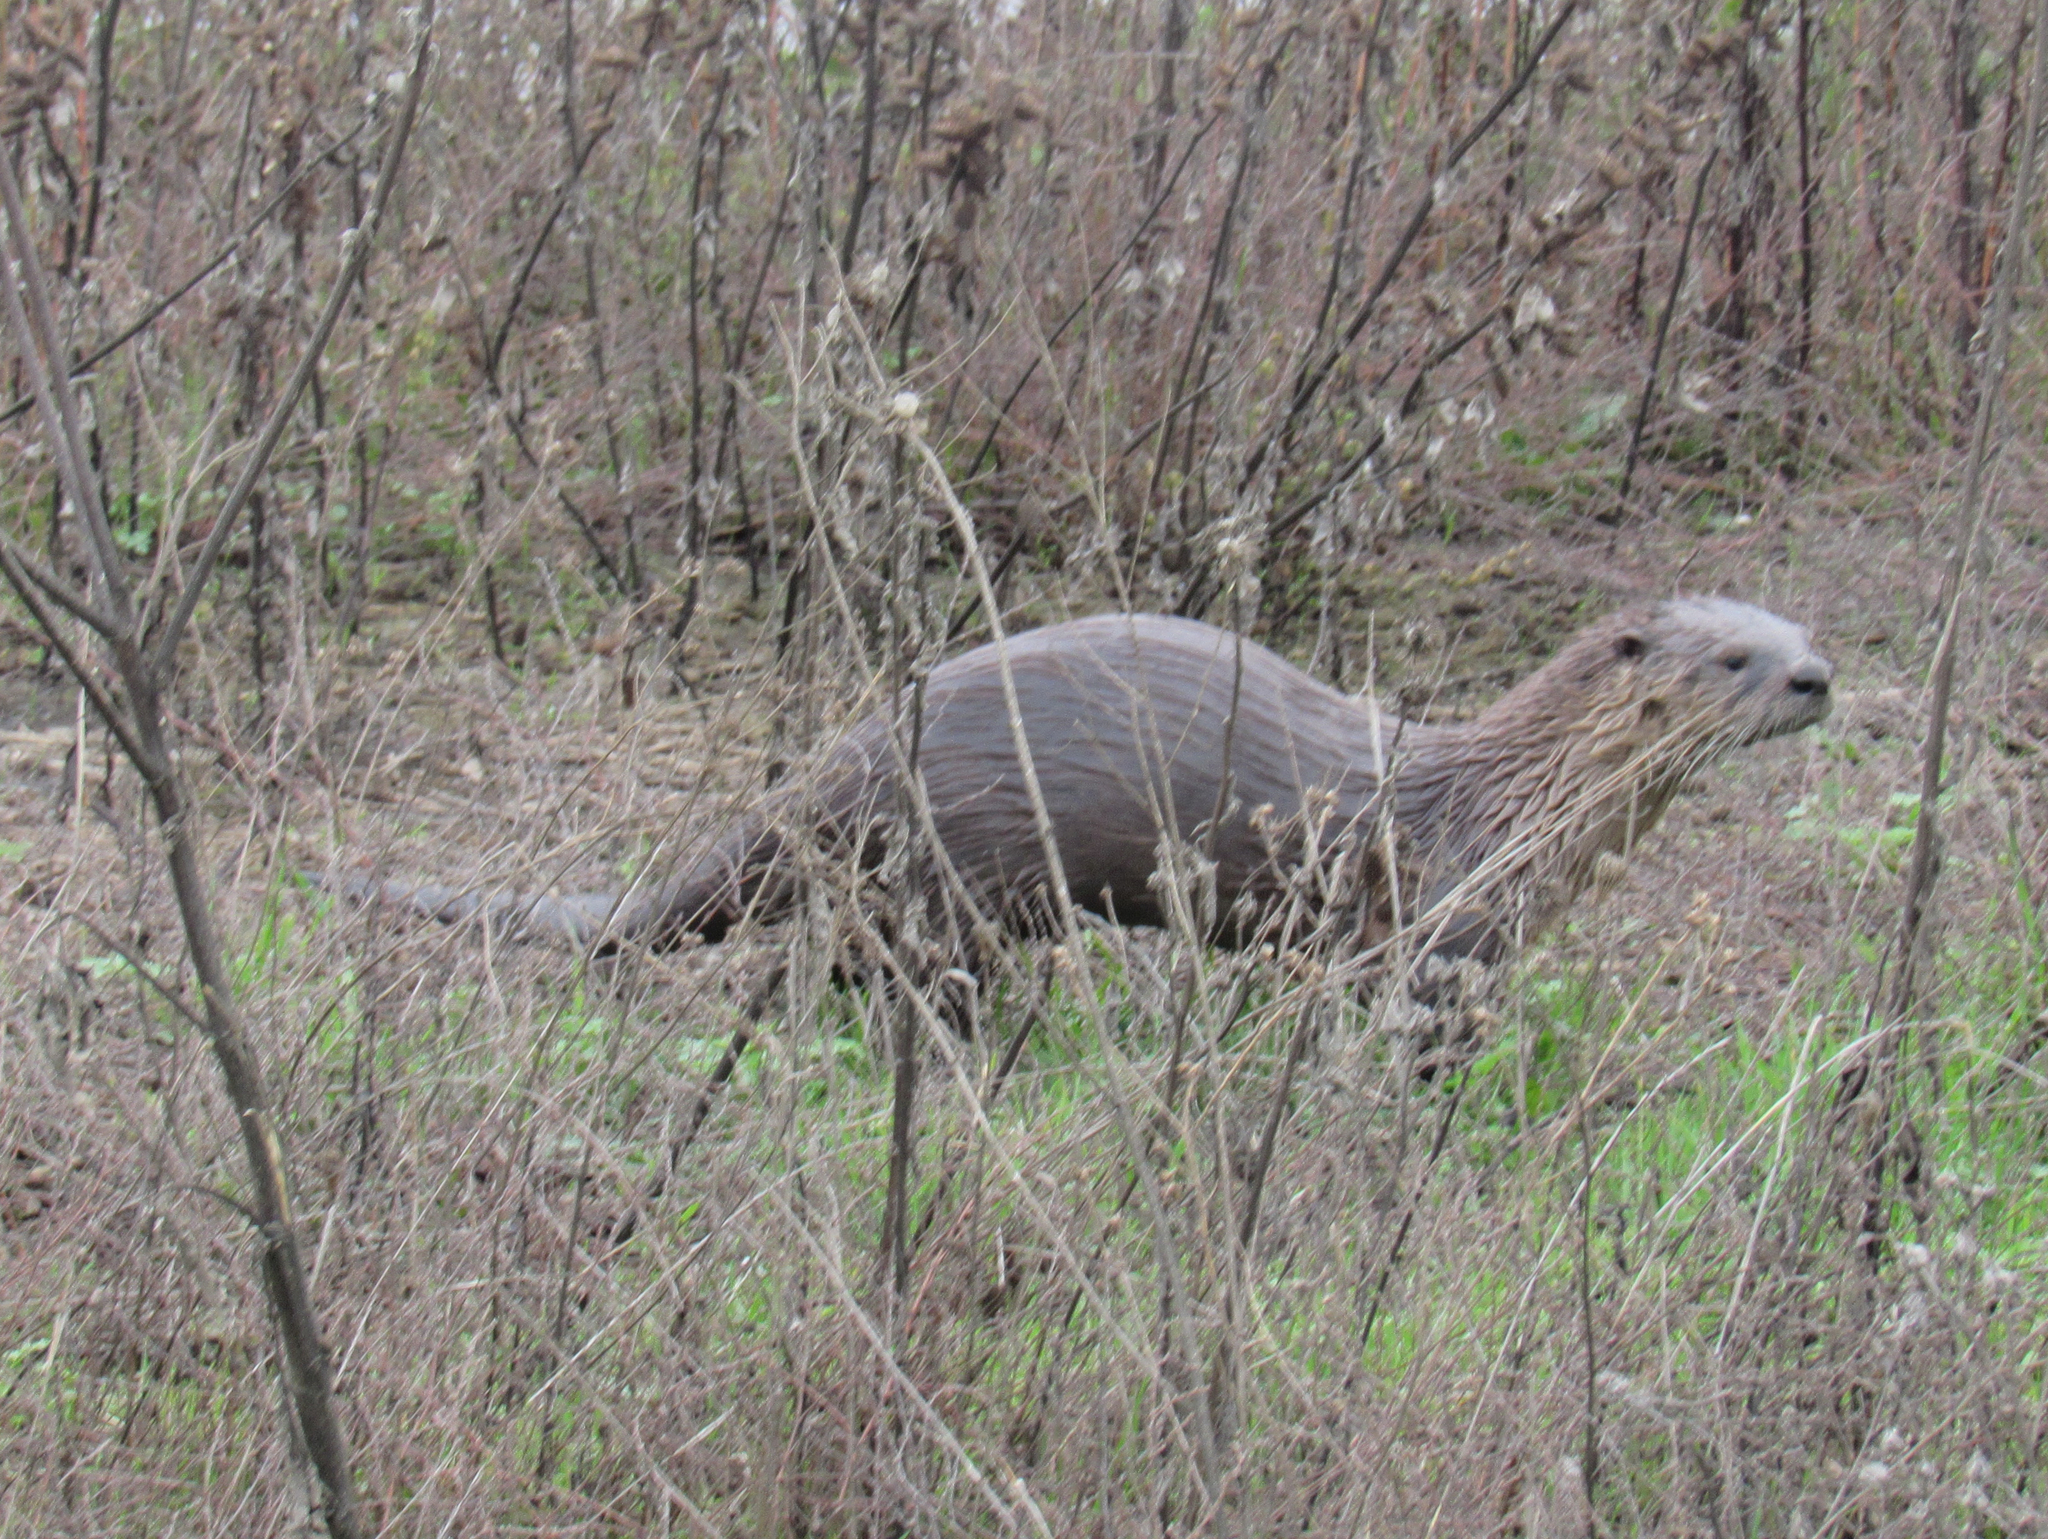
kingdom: Animalia
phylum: Chordata
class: Mammalia
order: Carnivora
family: Mustelidae
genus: Lontra
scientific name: Lontra canadensis
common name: North american river otter
